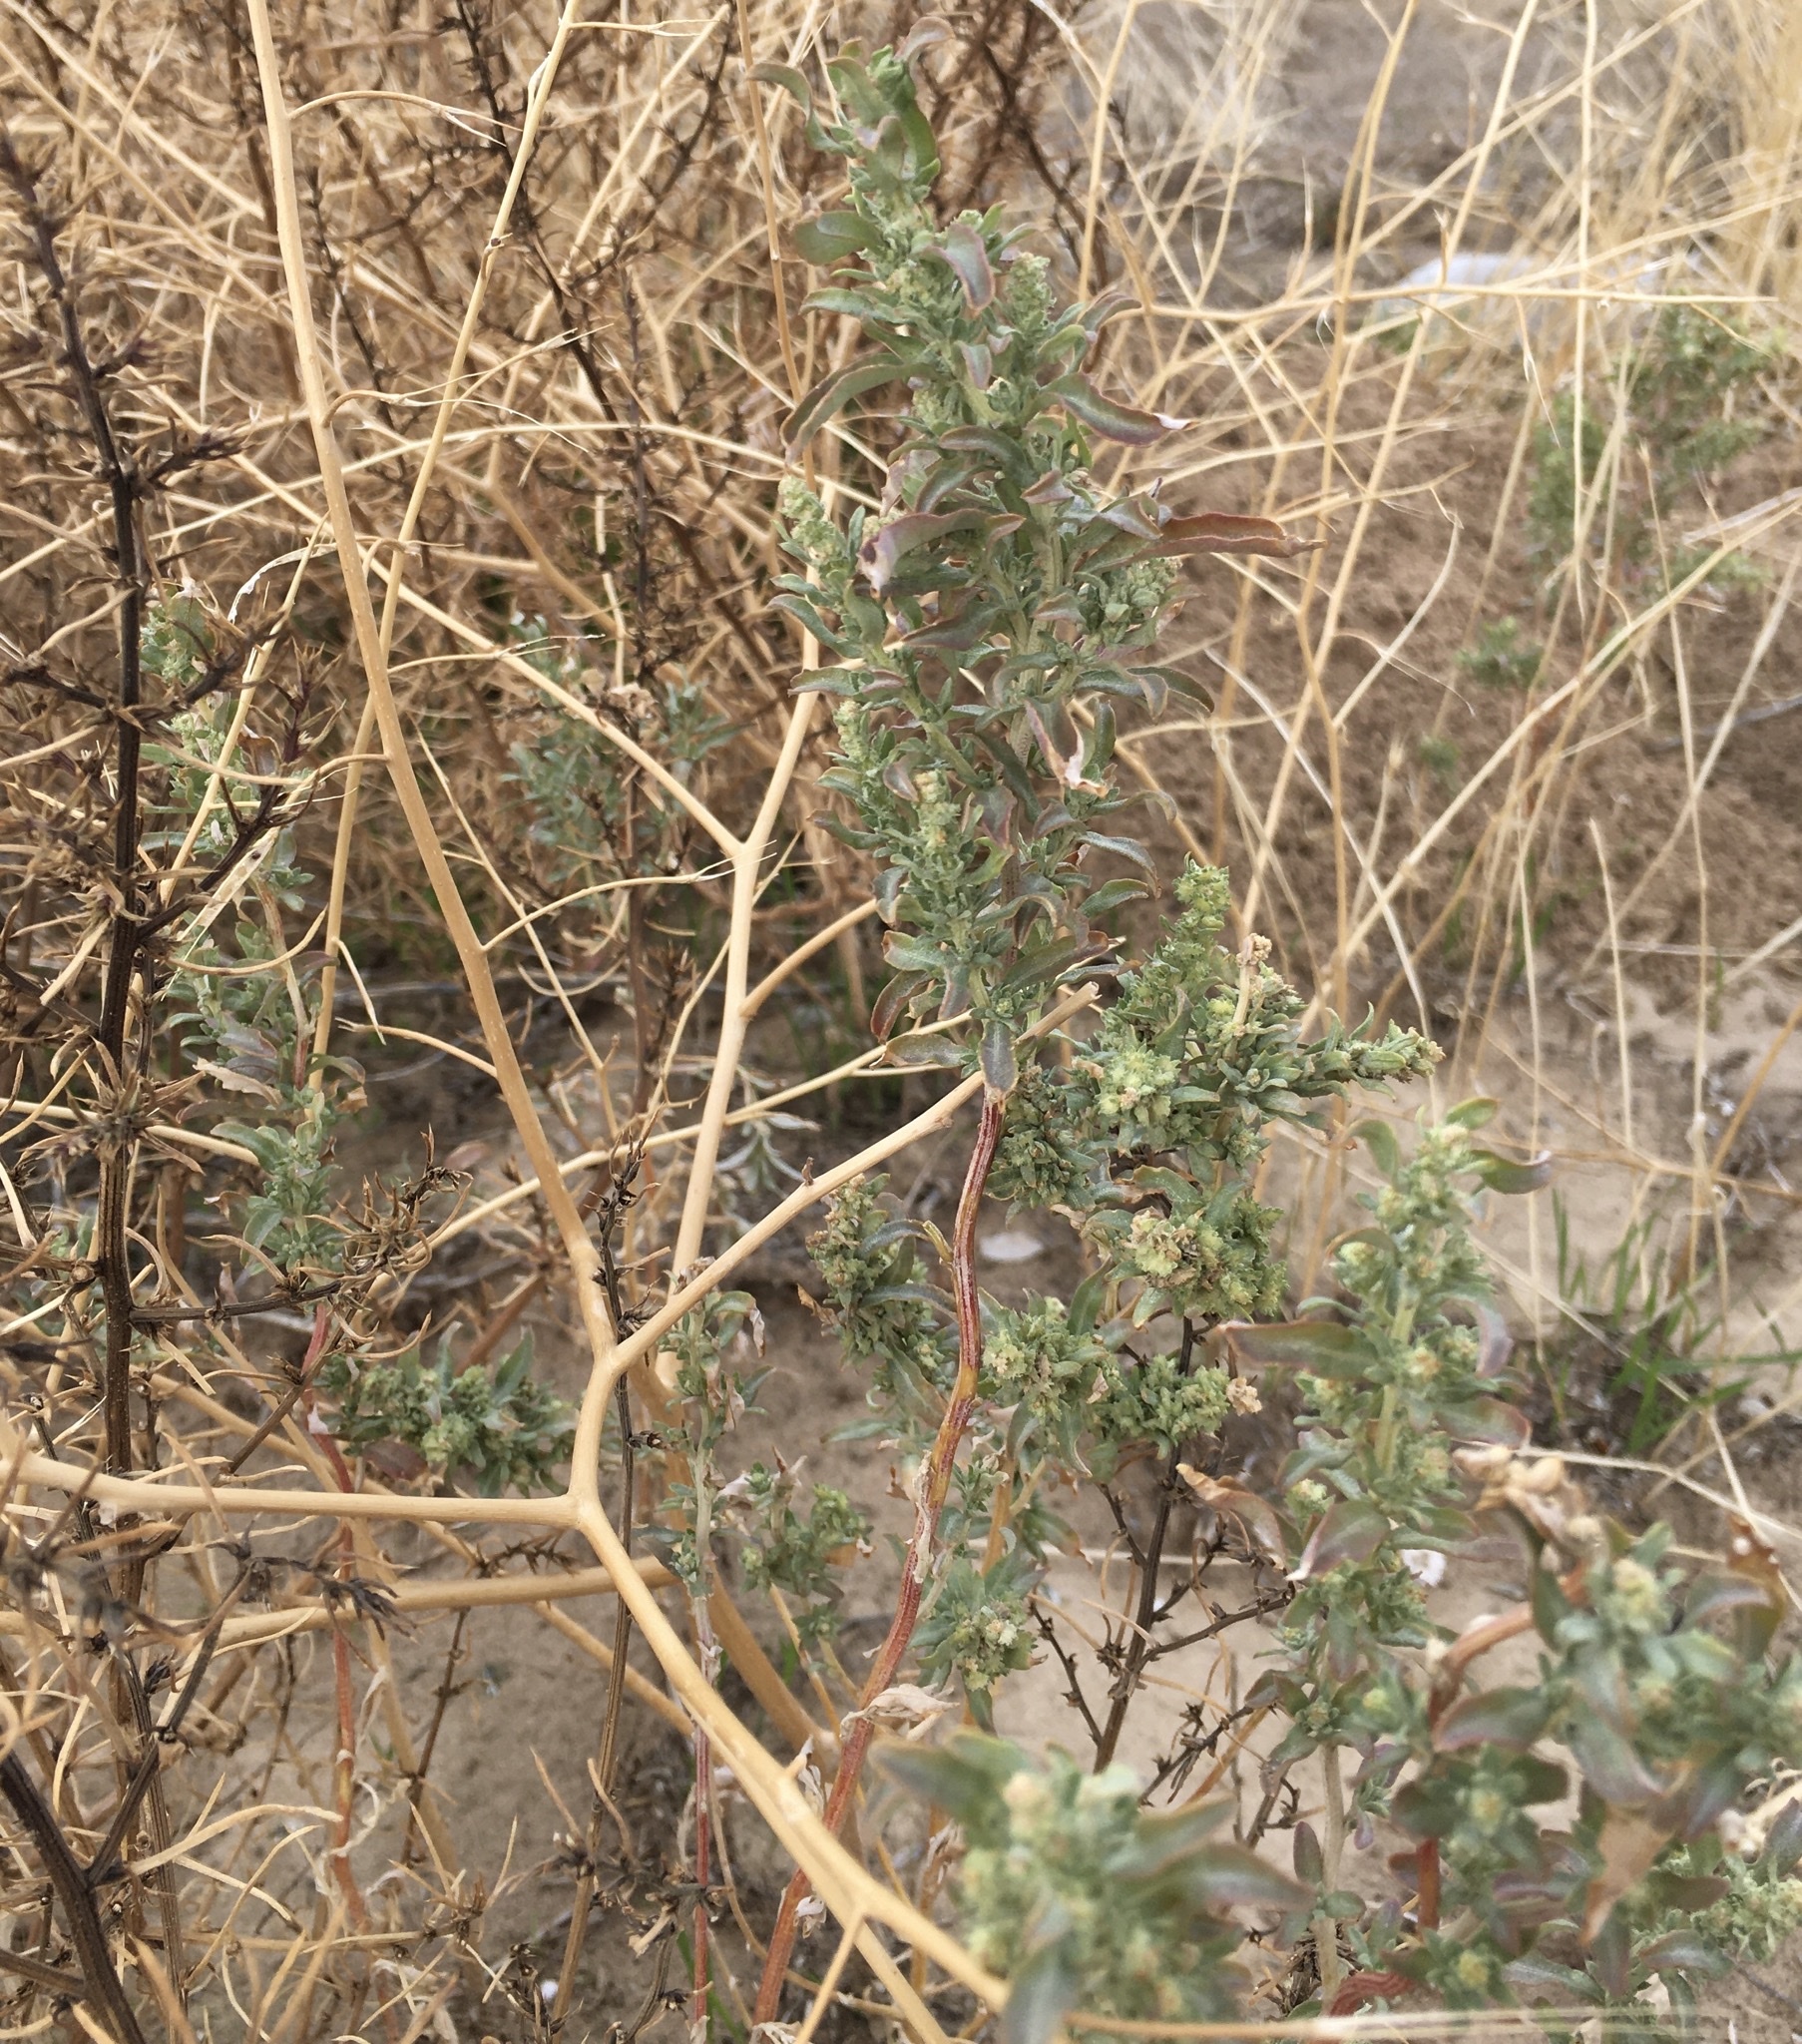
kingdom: Plantae
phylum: Tracheophyta
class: Magnoliopsida
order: Caryophyllales
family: Amaranthaceae
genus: Atriplex
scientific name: Atriplex canescens
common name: Four-wing saltbush
